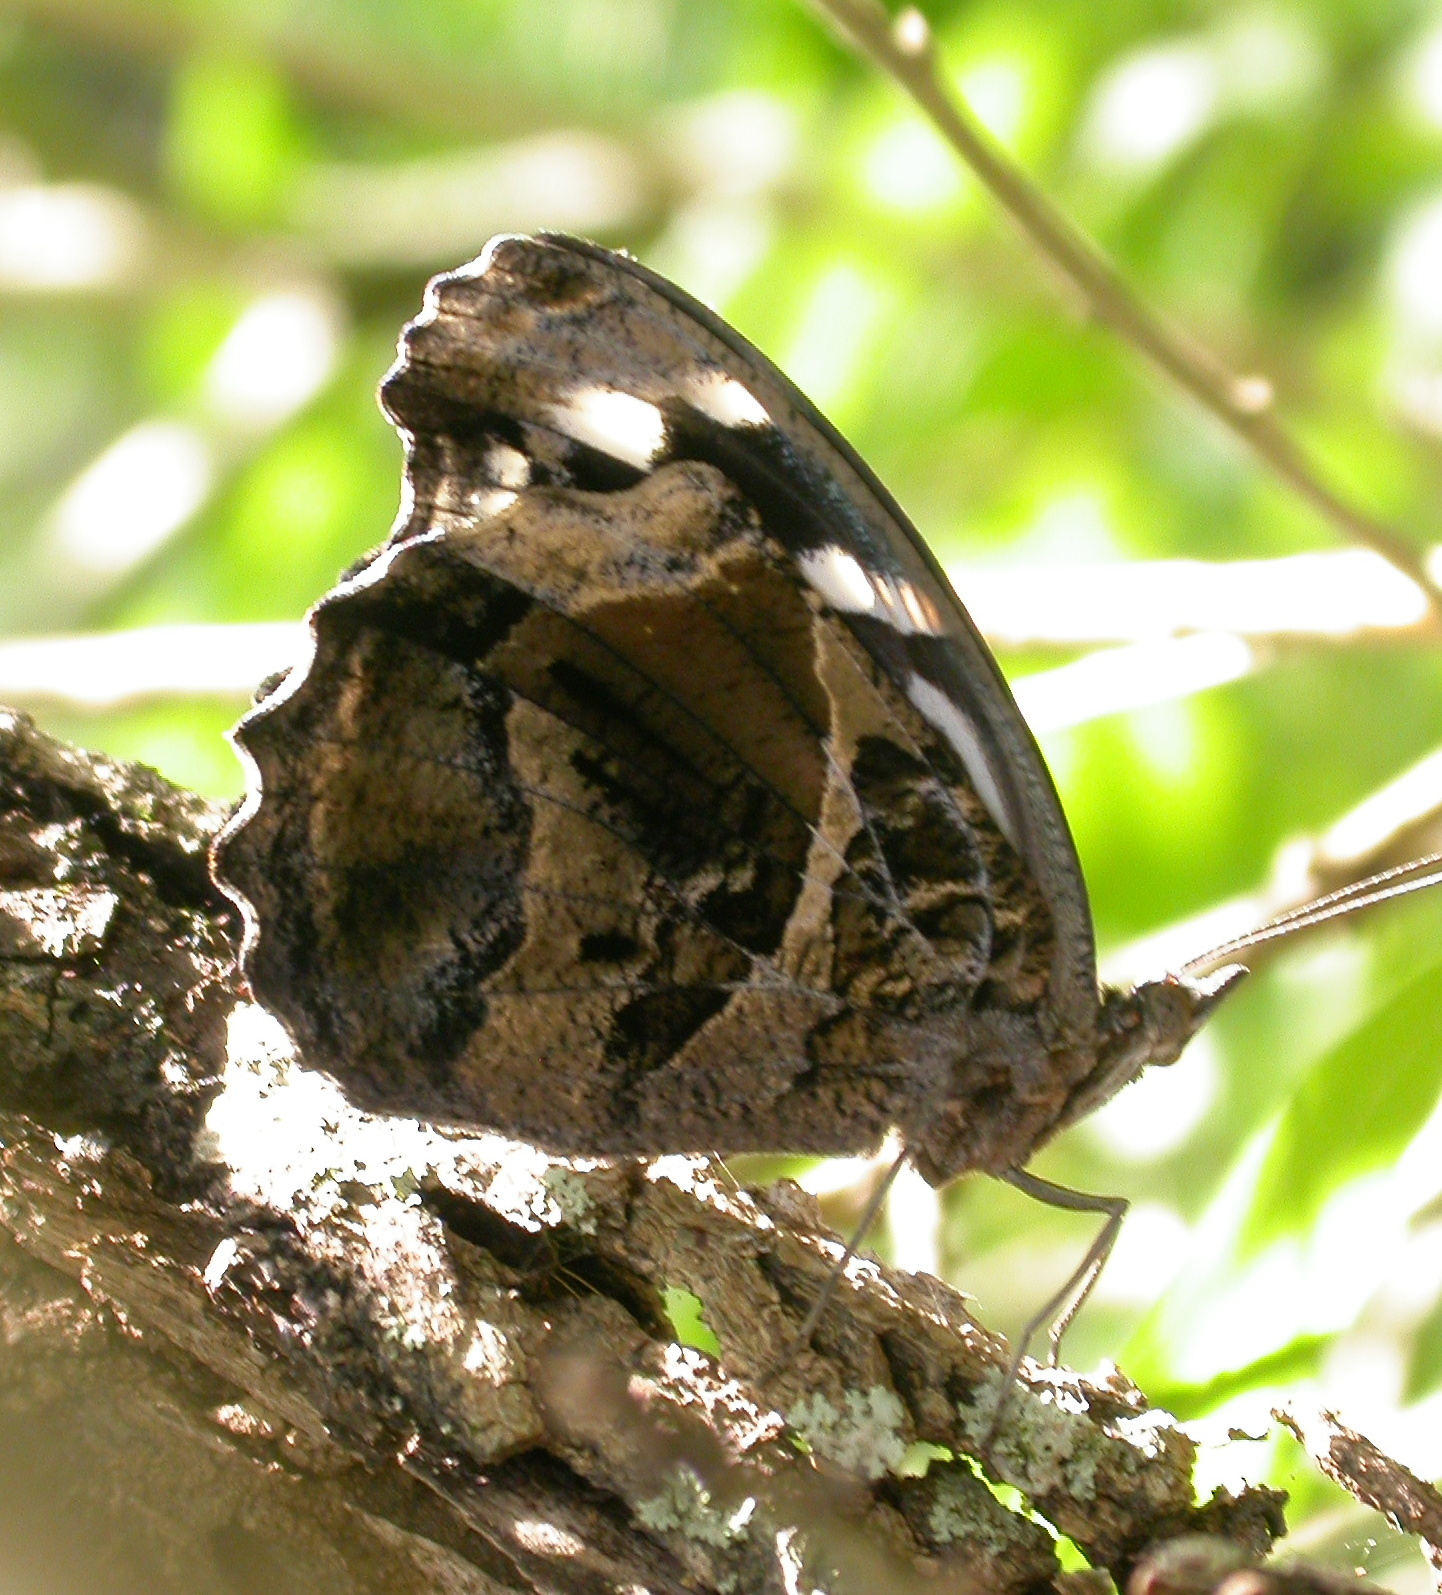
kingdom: Animalia
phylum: Arthropoda
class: Insecta
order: Lepidoptera
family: Nymphalidae
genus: Myscelia
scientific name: Myscelia ethusa
